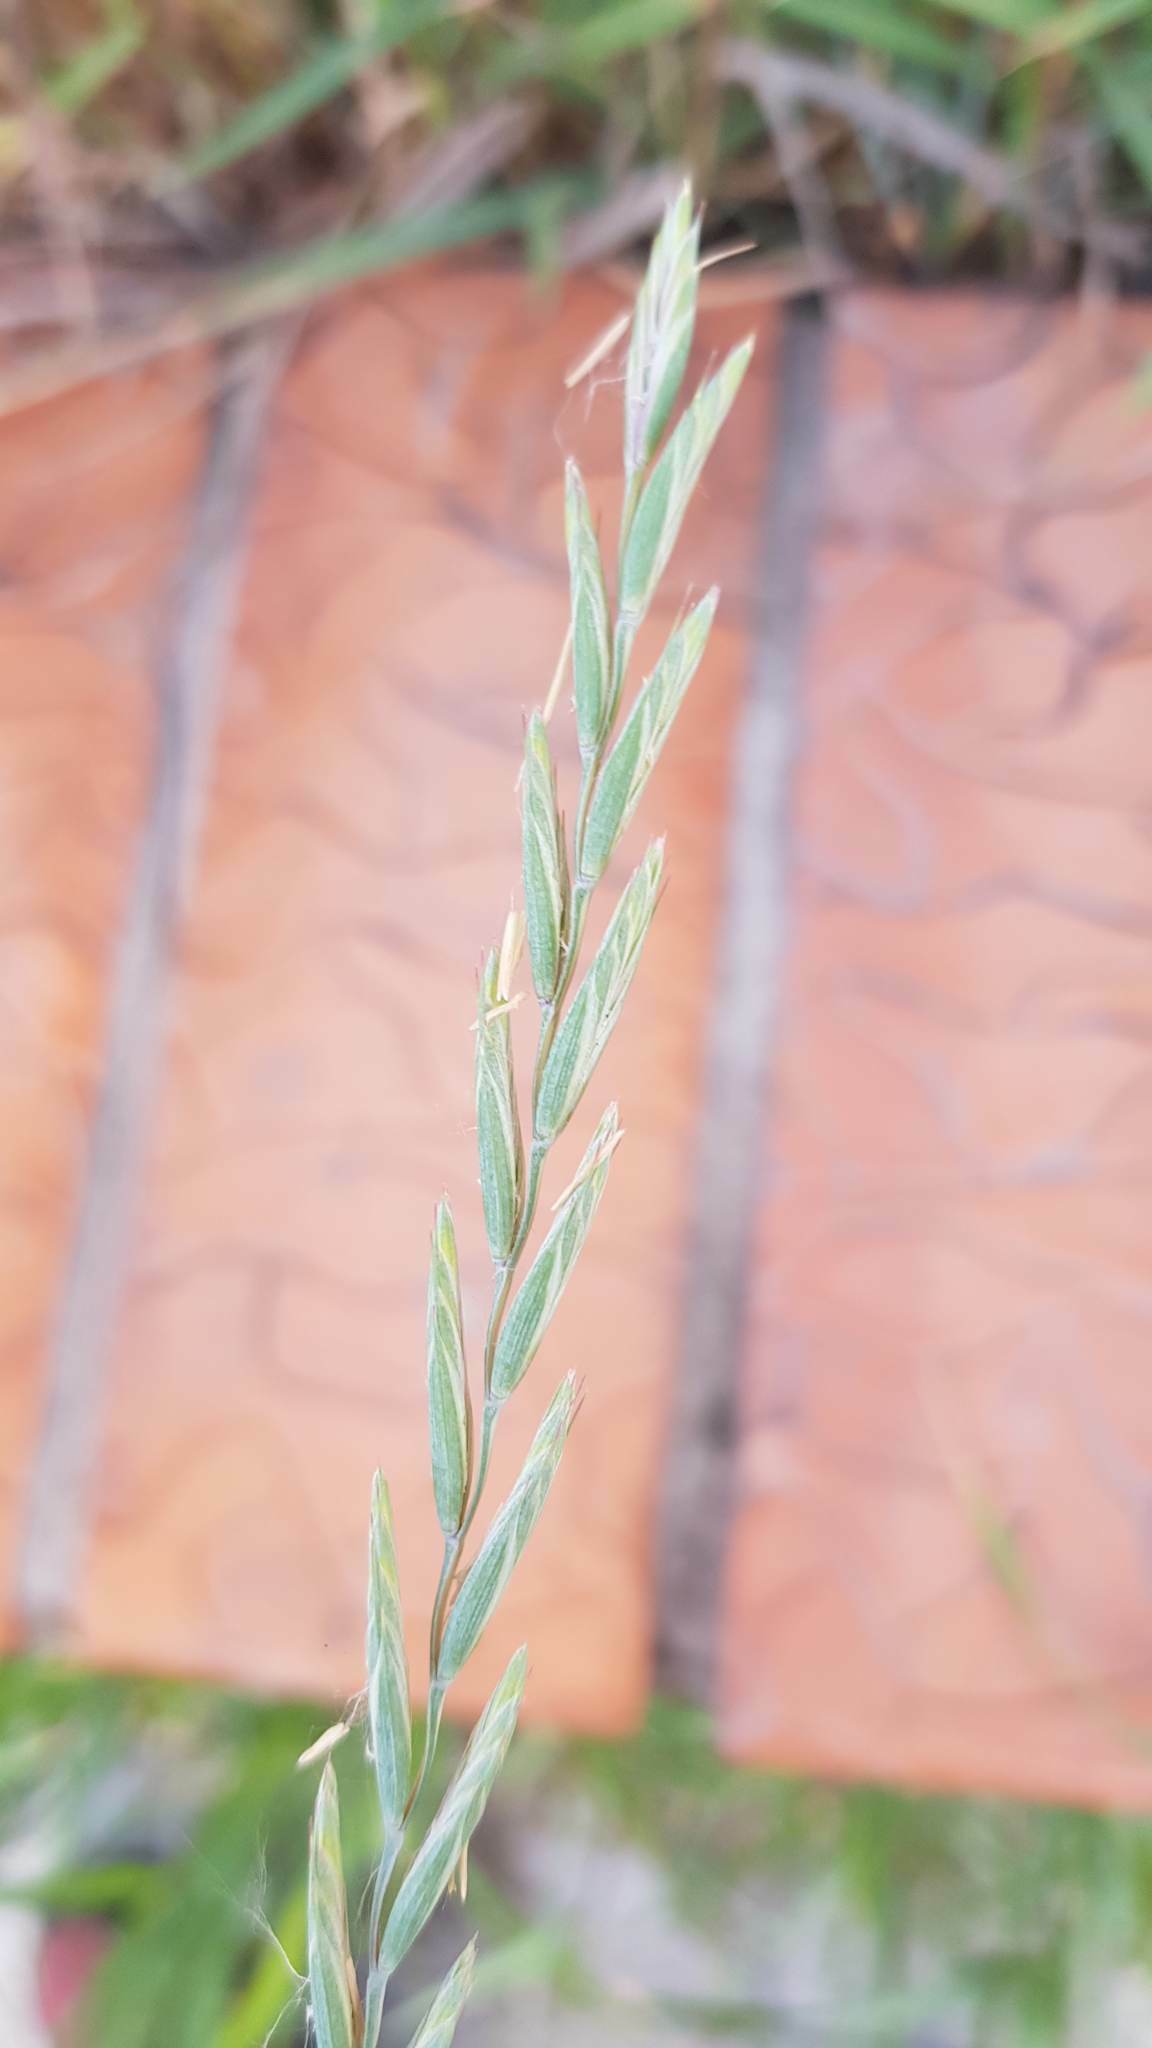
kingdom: Plantae
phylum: Tracheophyta
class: Liliopsida
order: Poales
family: Poaceae
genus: Elymus
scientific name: Elymus repens
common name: Quackgrass
